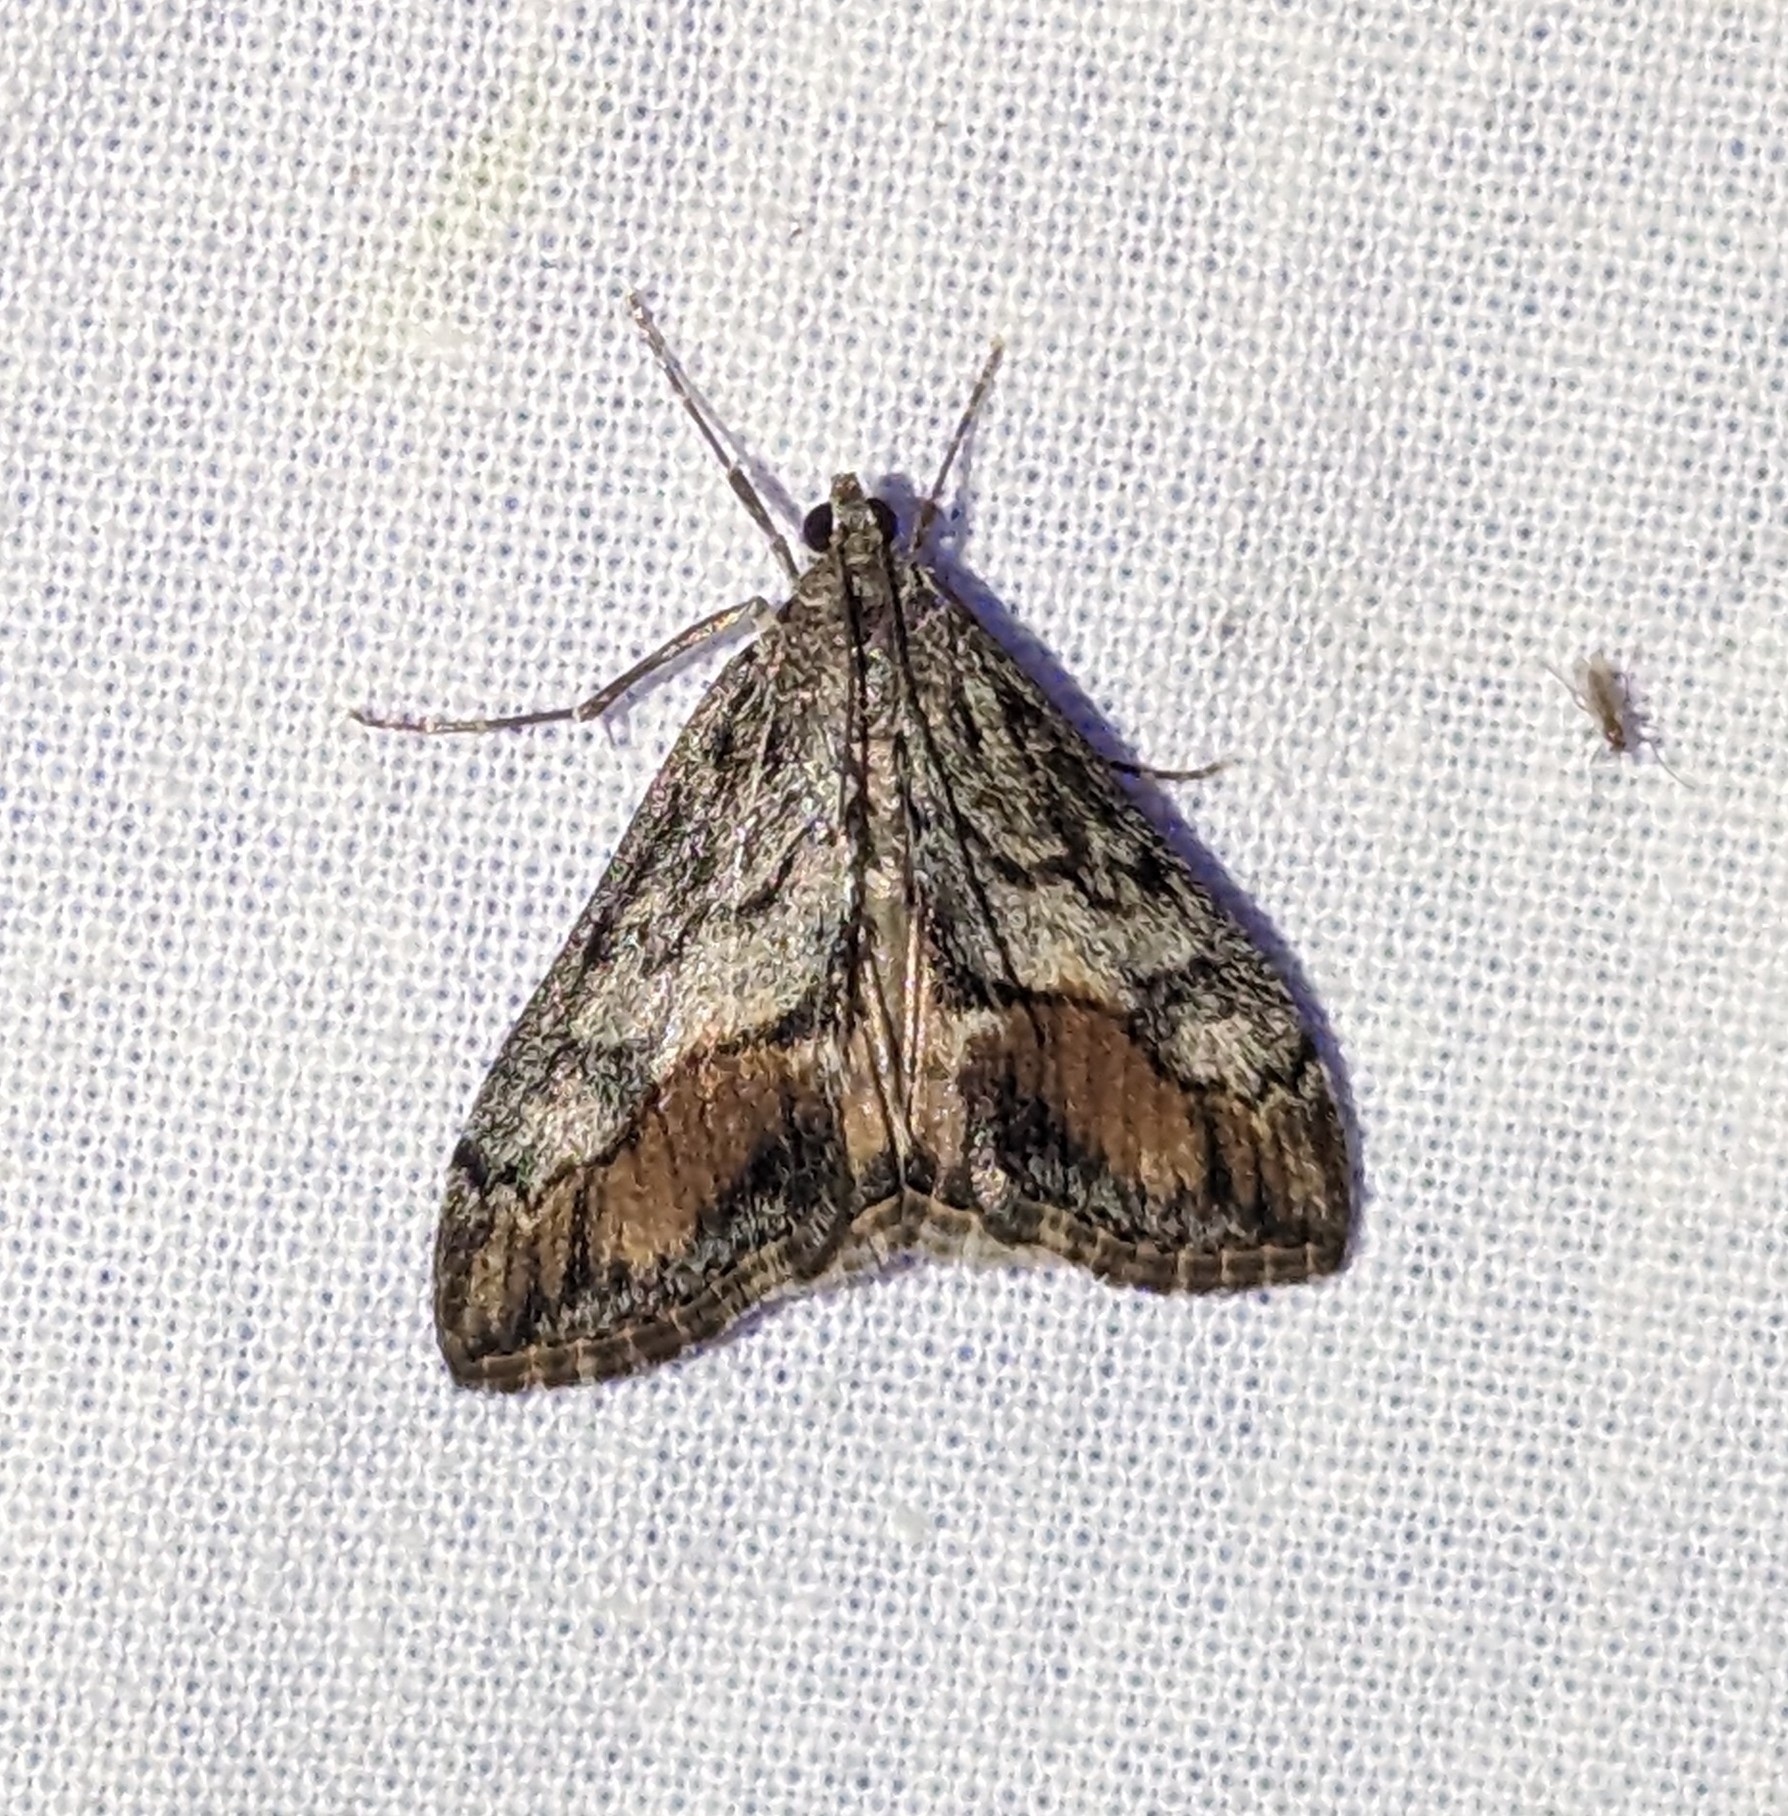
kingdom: Animalia
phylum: Arthropoda
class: Insecta
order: Lepidoptera
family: Crambidae
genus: Evergestis
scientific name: Evergestis subterminalis
